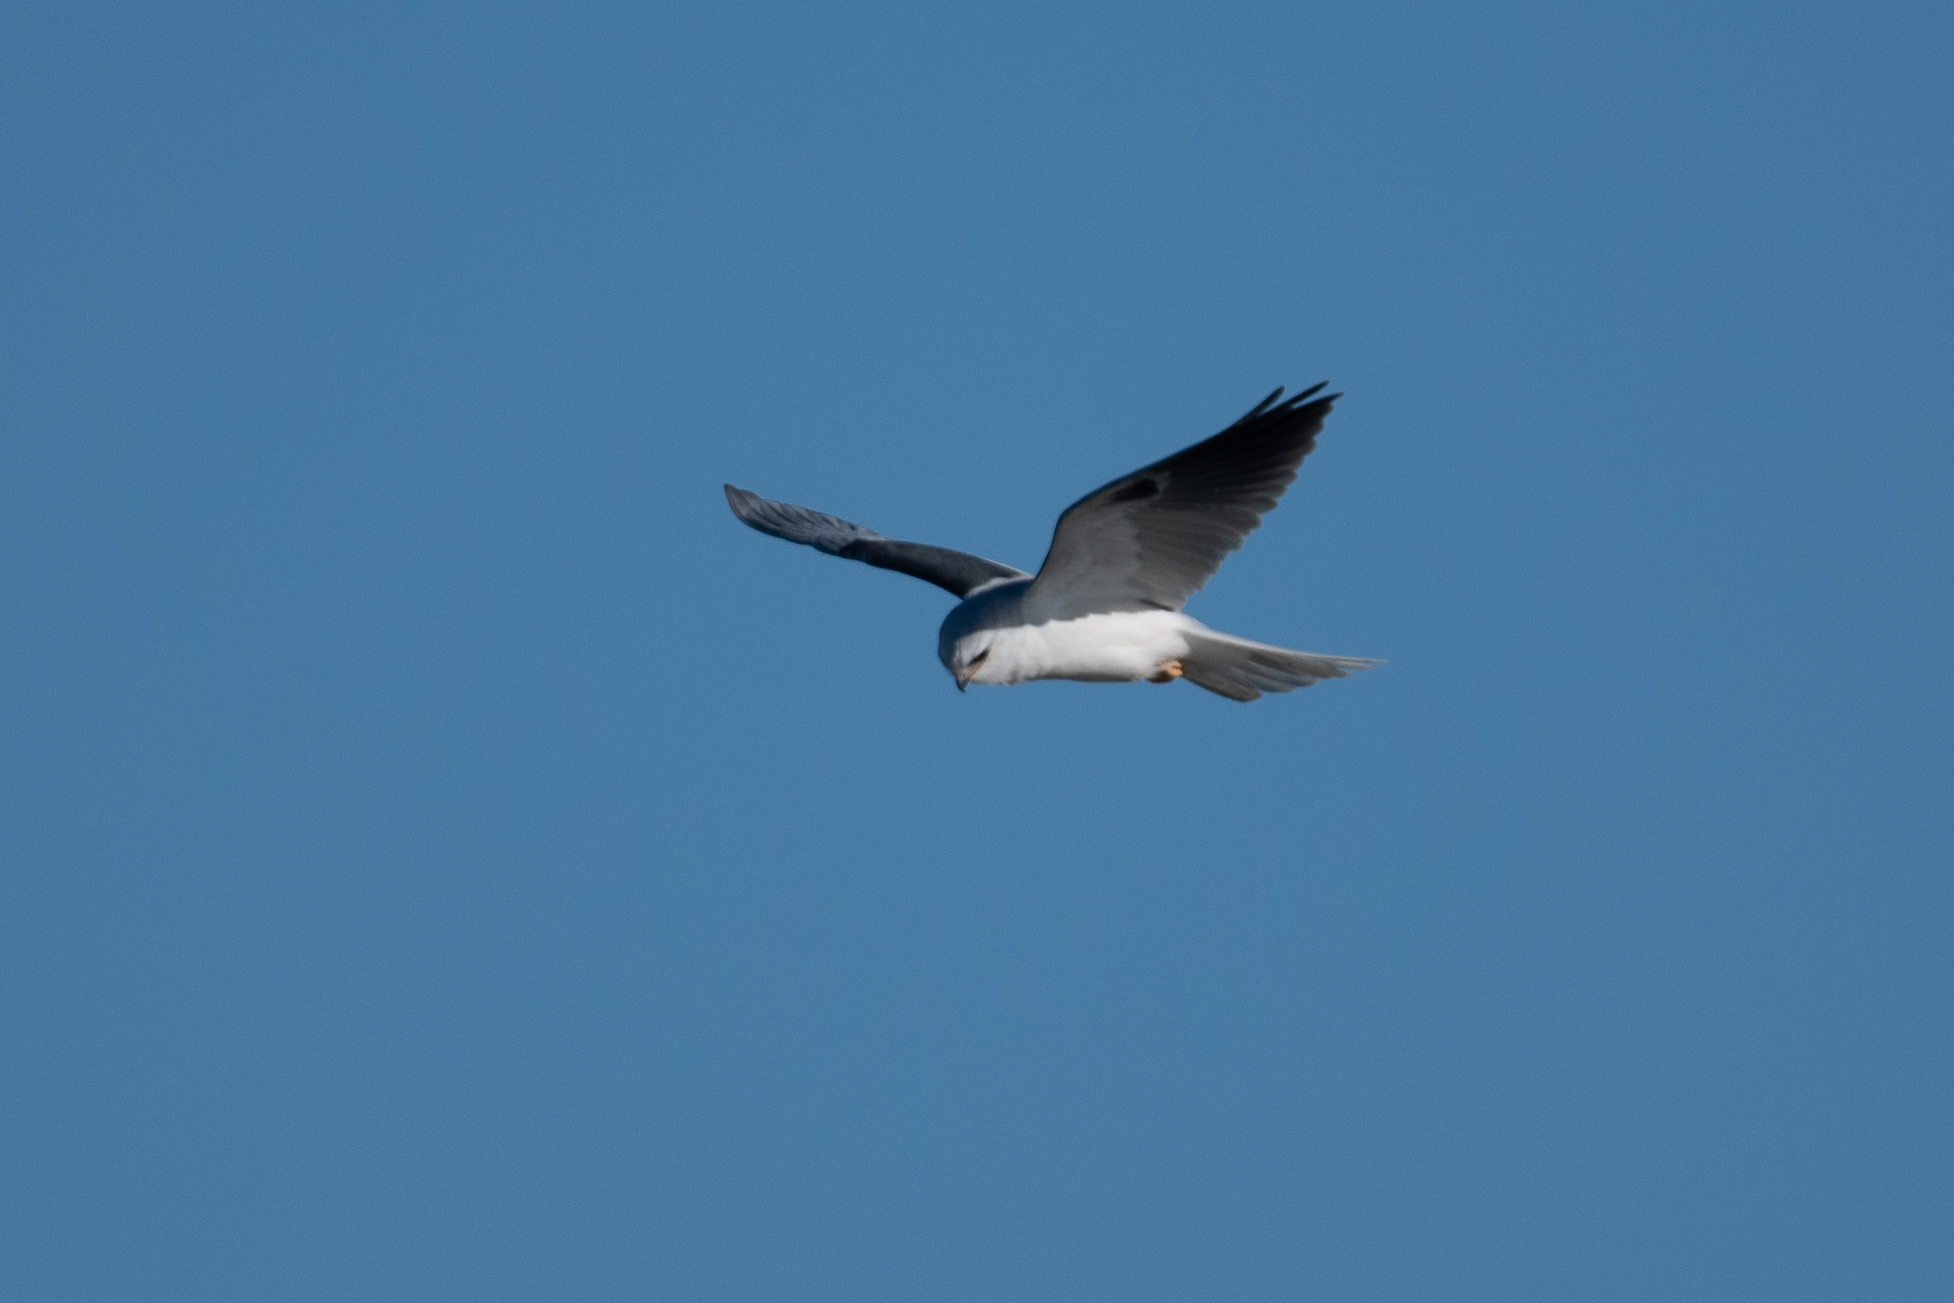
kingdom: Animalia
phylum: Chordata
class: Aves
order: Accipitriformes
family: Accipitridae
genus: Elanus
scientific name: Elanus leucurus
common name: White-tailed kite
